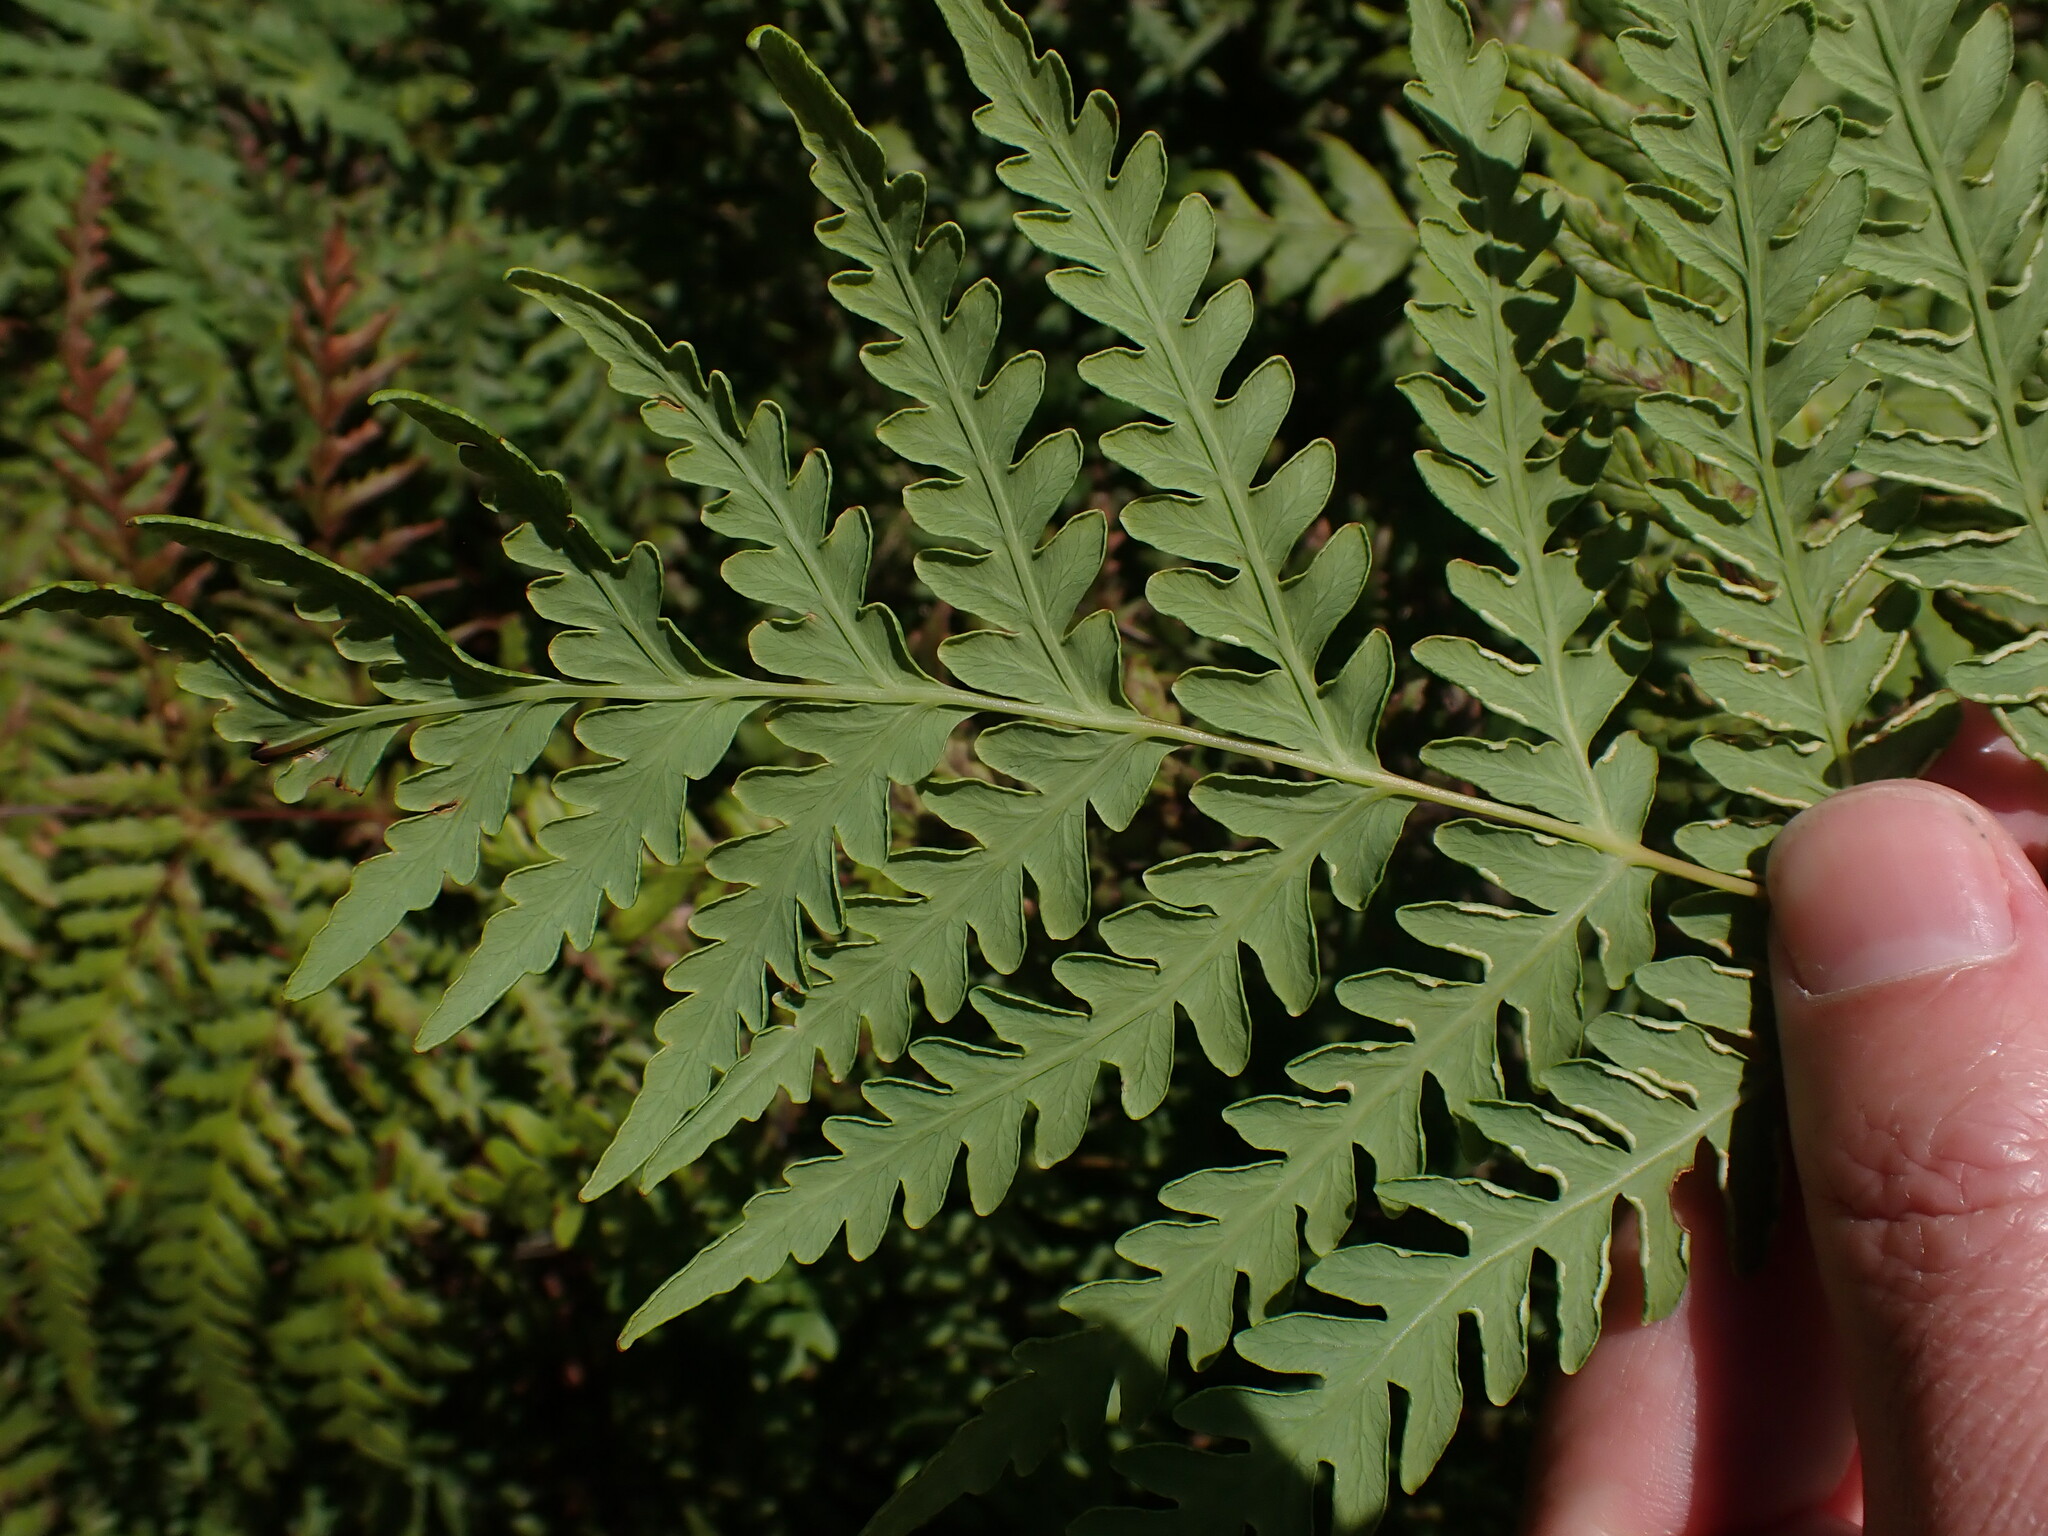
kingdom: Plantae
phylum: Tracheophyta
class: Polypodiopsida
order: Polypodiales
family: Dennstaedtiaceae
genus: Histiopteris
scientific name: Histiopteris incisa
